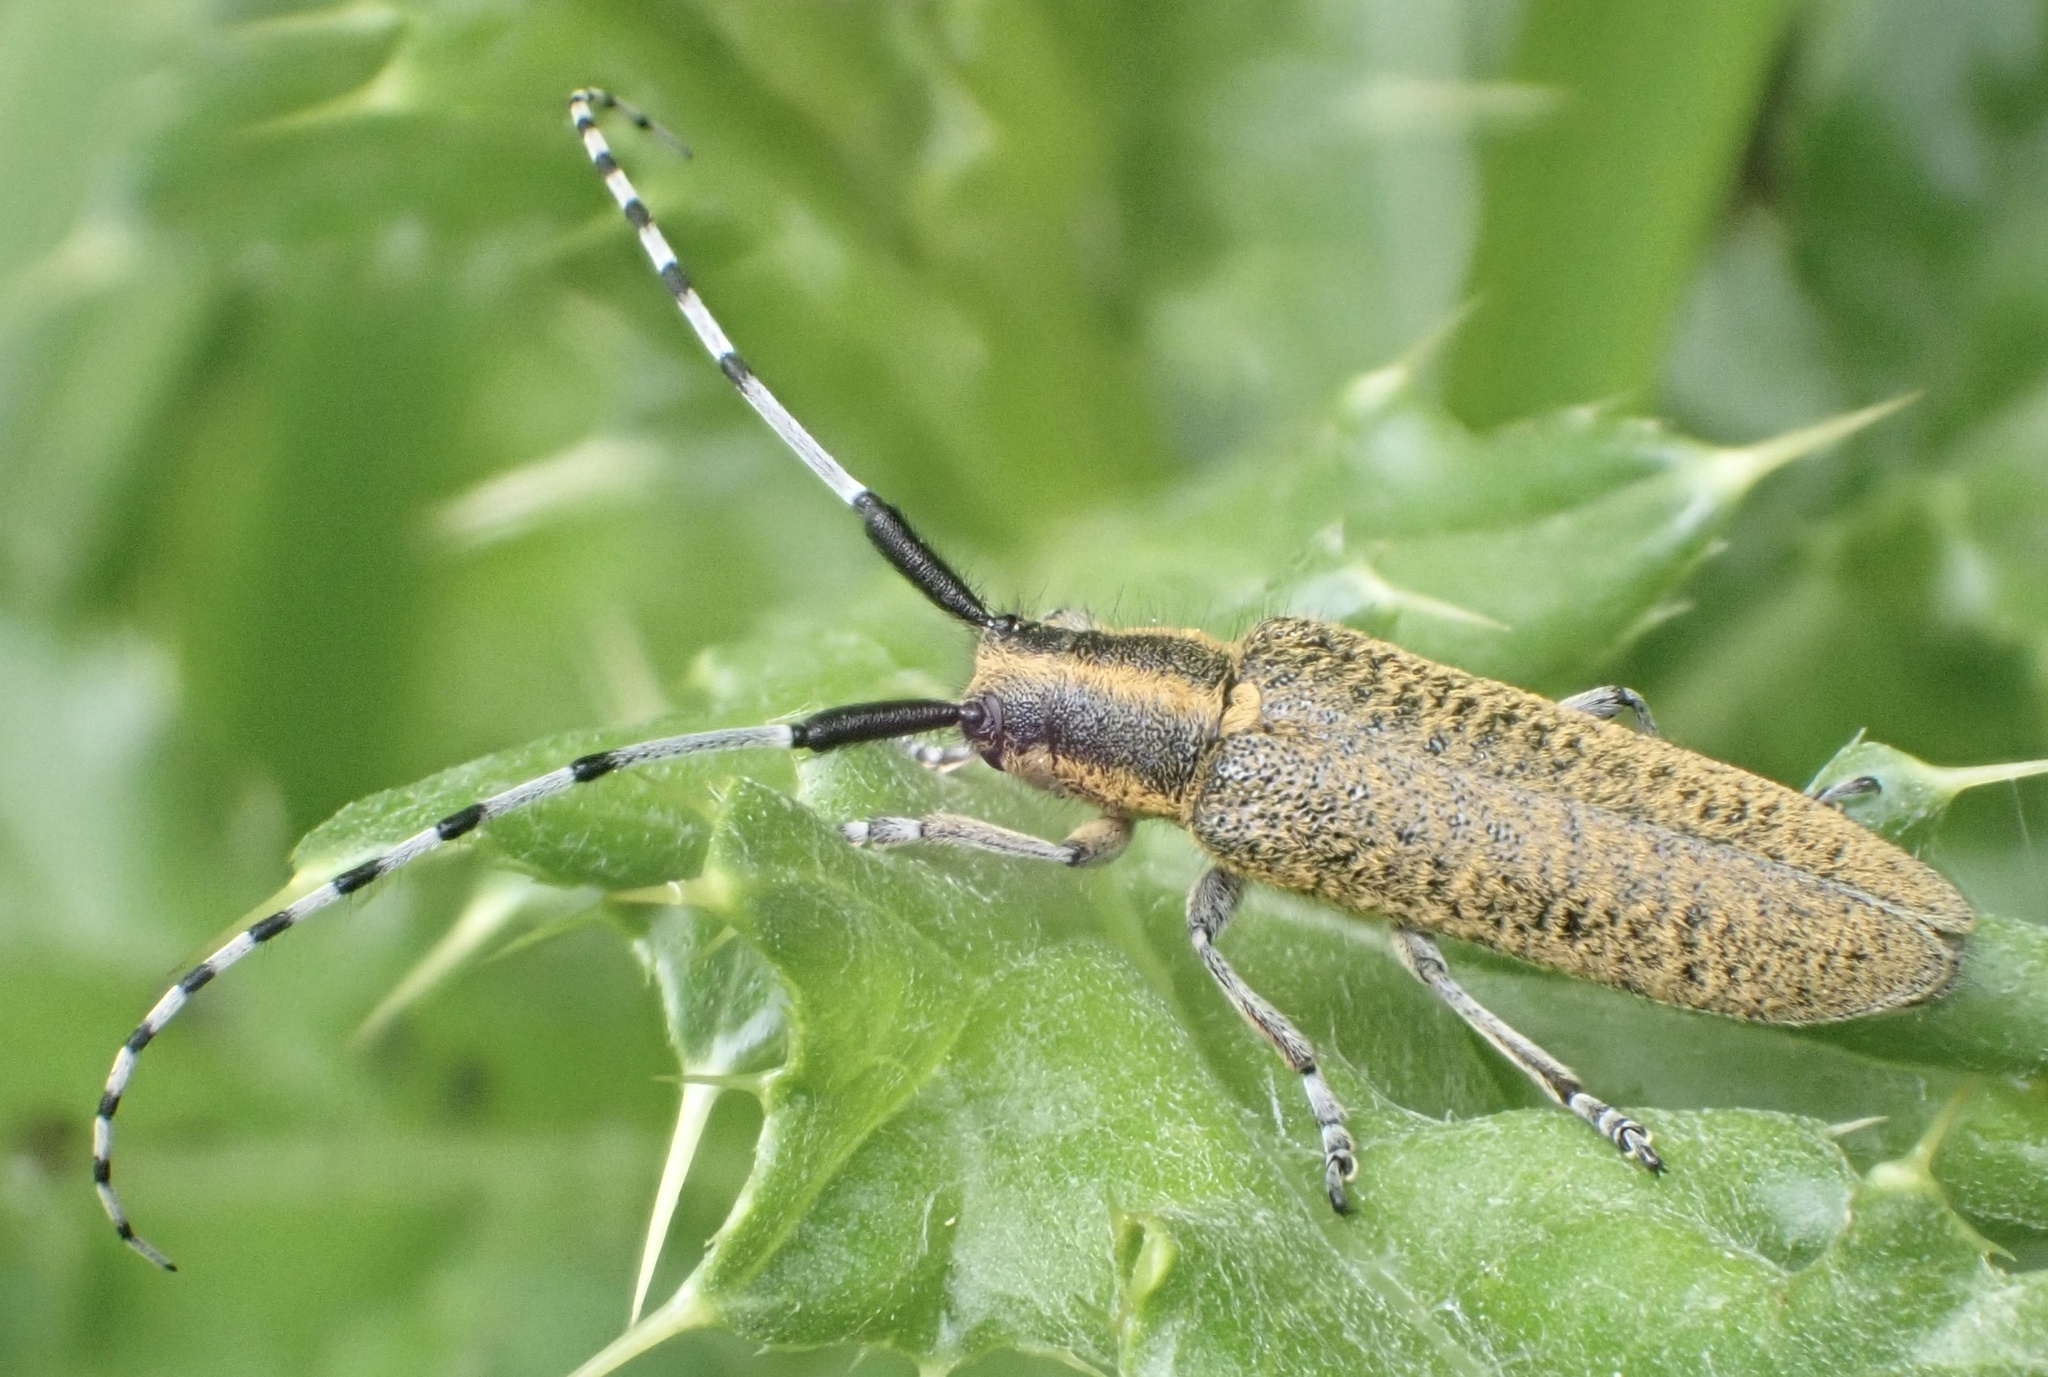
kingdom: Animalia
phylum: Arthropoda
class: Insecta
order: Coleoptera
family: Cerambycidae
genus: Agapanthia
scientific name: Agapanthia villosoviridescens
